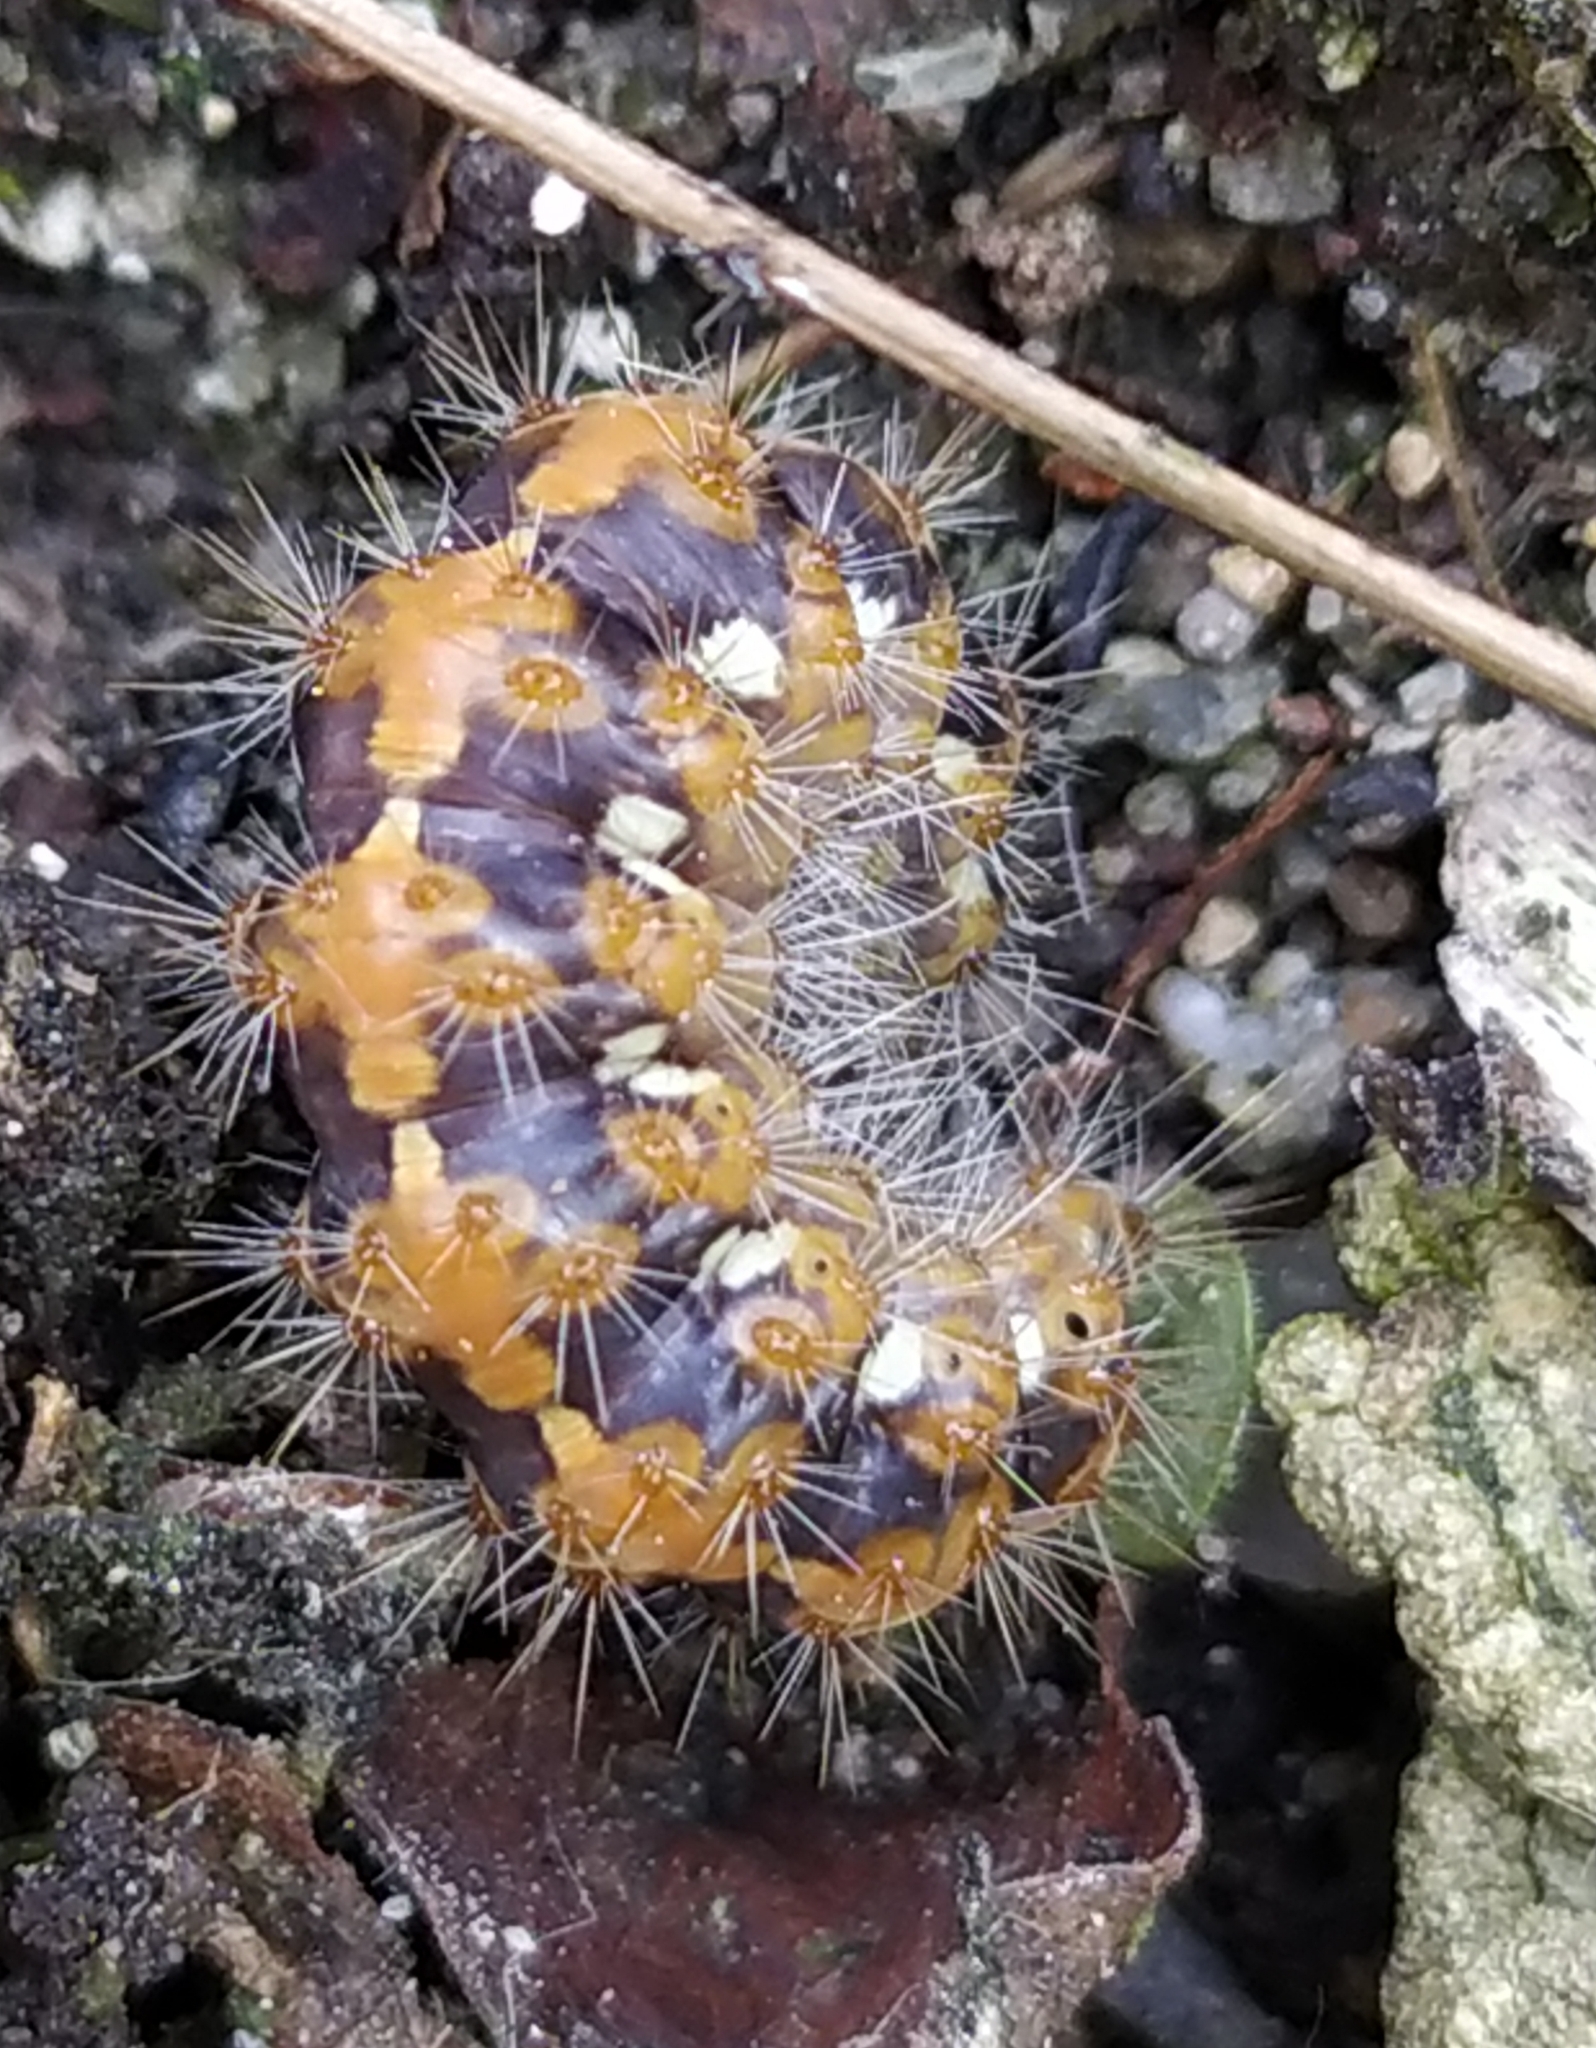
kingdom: Animalia
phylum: Arthropoda
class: Insecta
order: Lepidoptera
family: Erebidae
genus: Euplagia
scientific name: Euplagia quadripunctaria
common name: Jersey tiger
